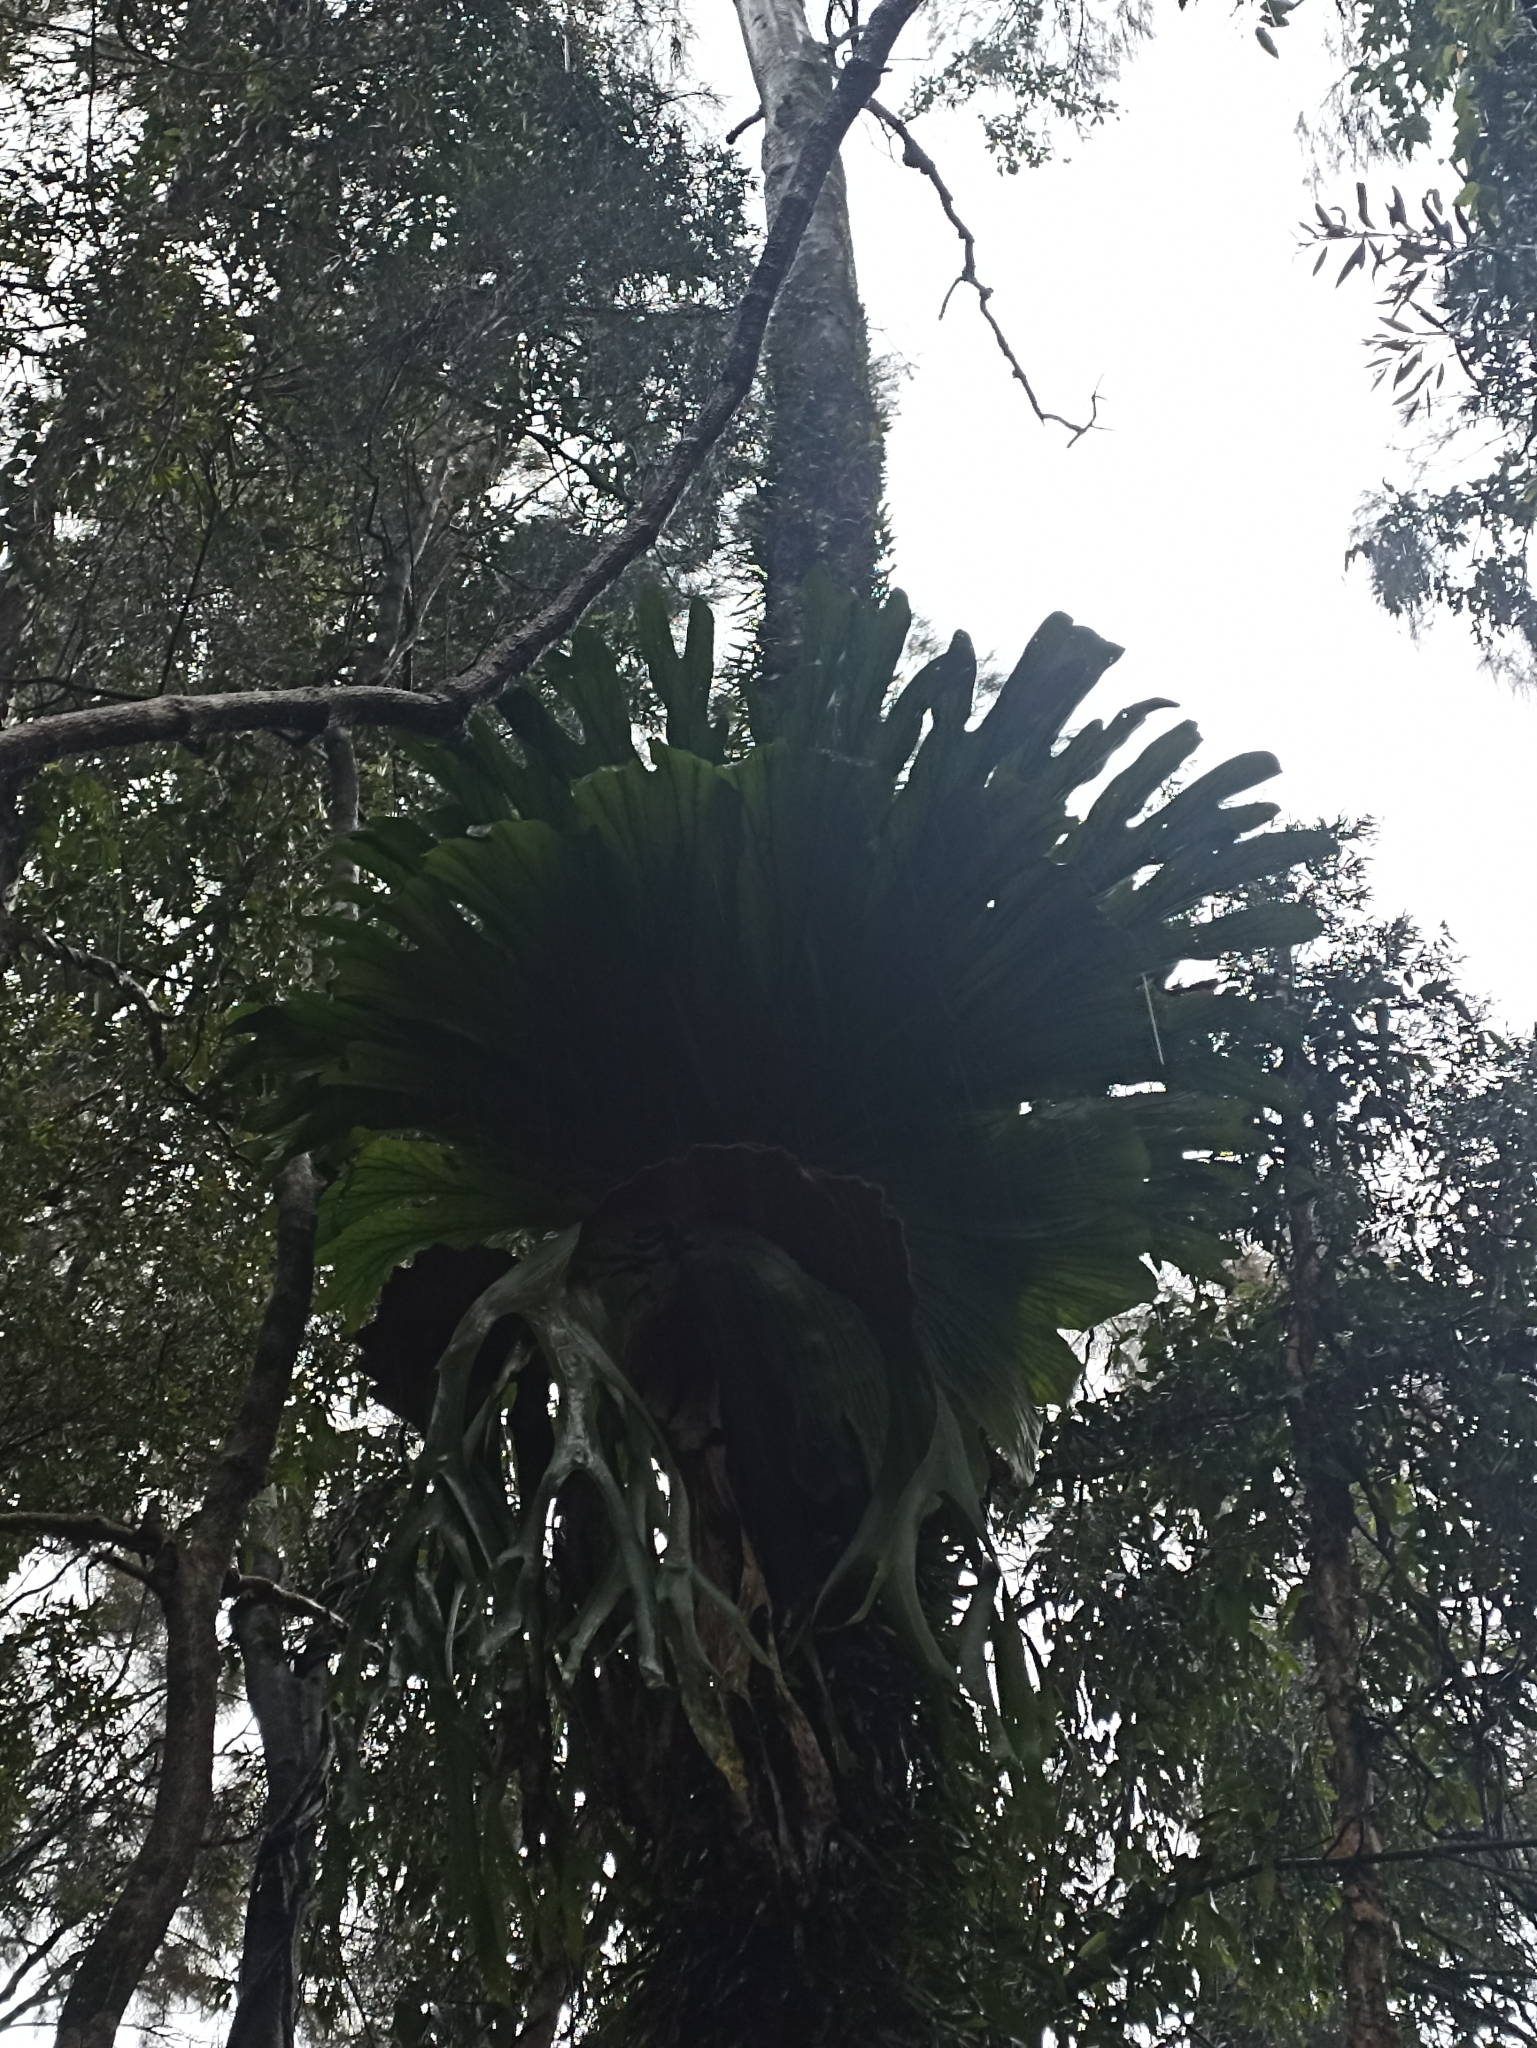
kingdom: Plantae
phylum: Tracheophyta
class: Polypodiopsida
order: Polypodiales
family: Polypodiaceae
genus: Platycerium
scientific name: Platycerium superbum
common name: Staghorn fern
